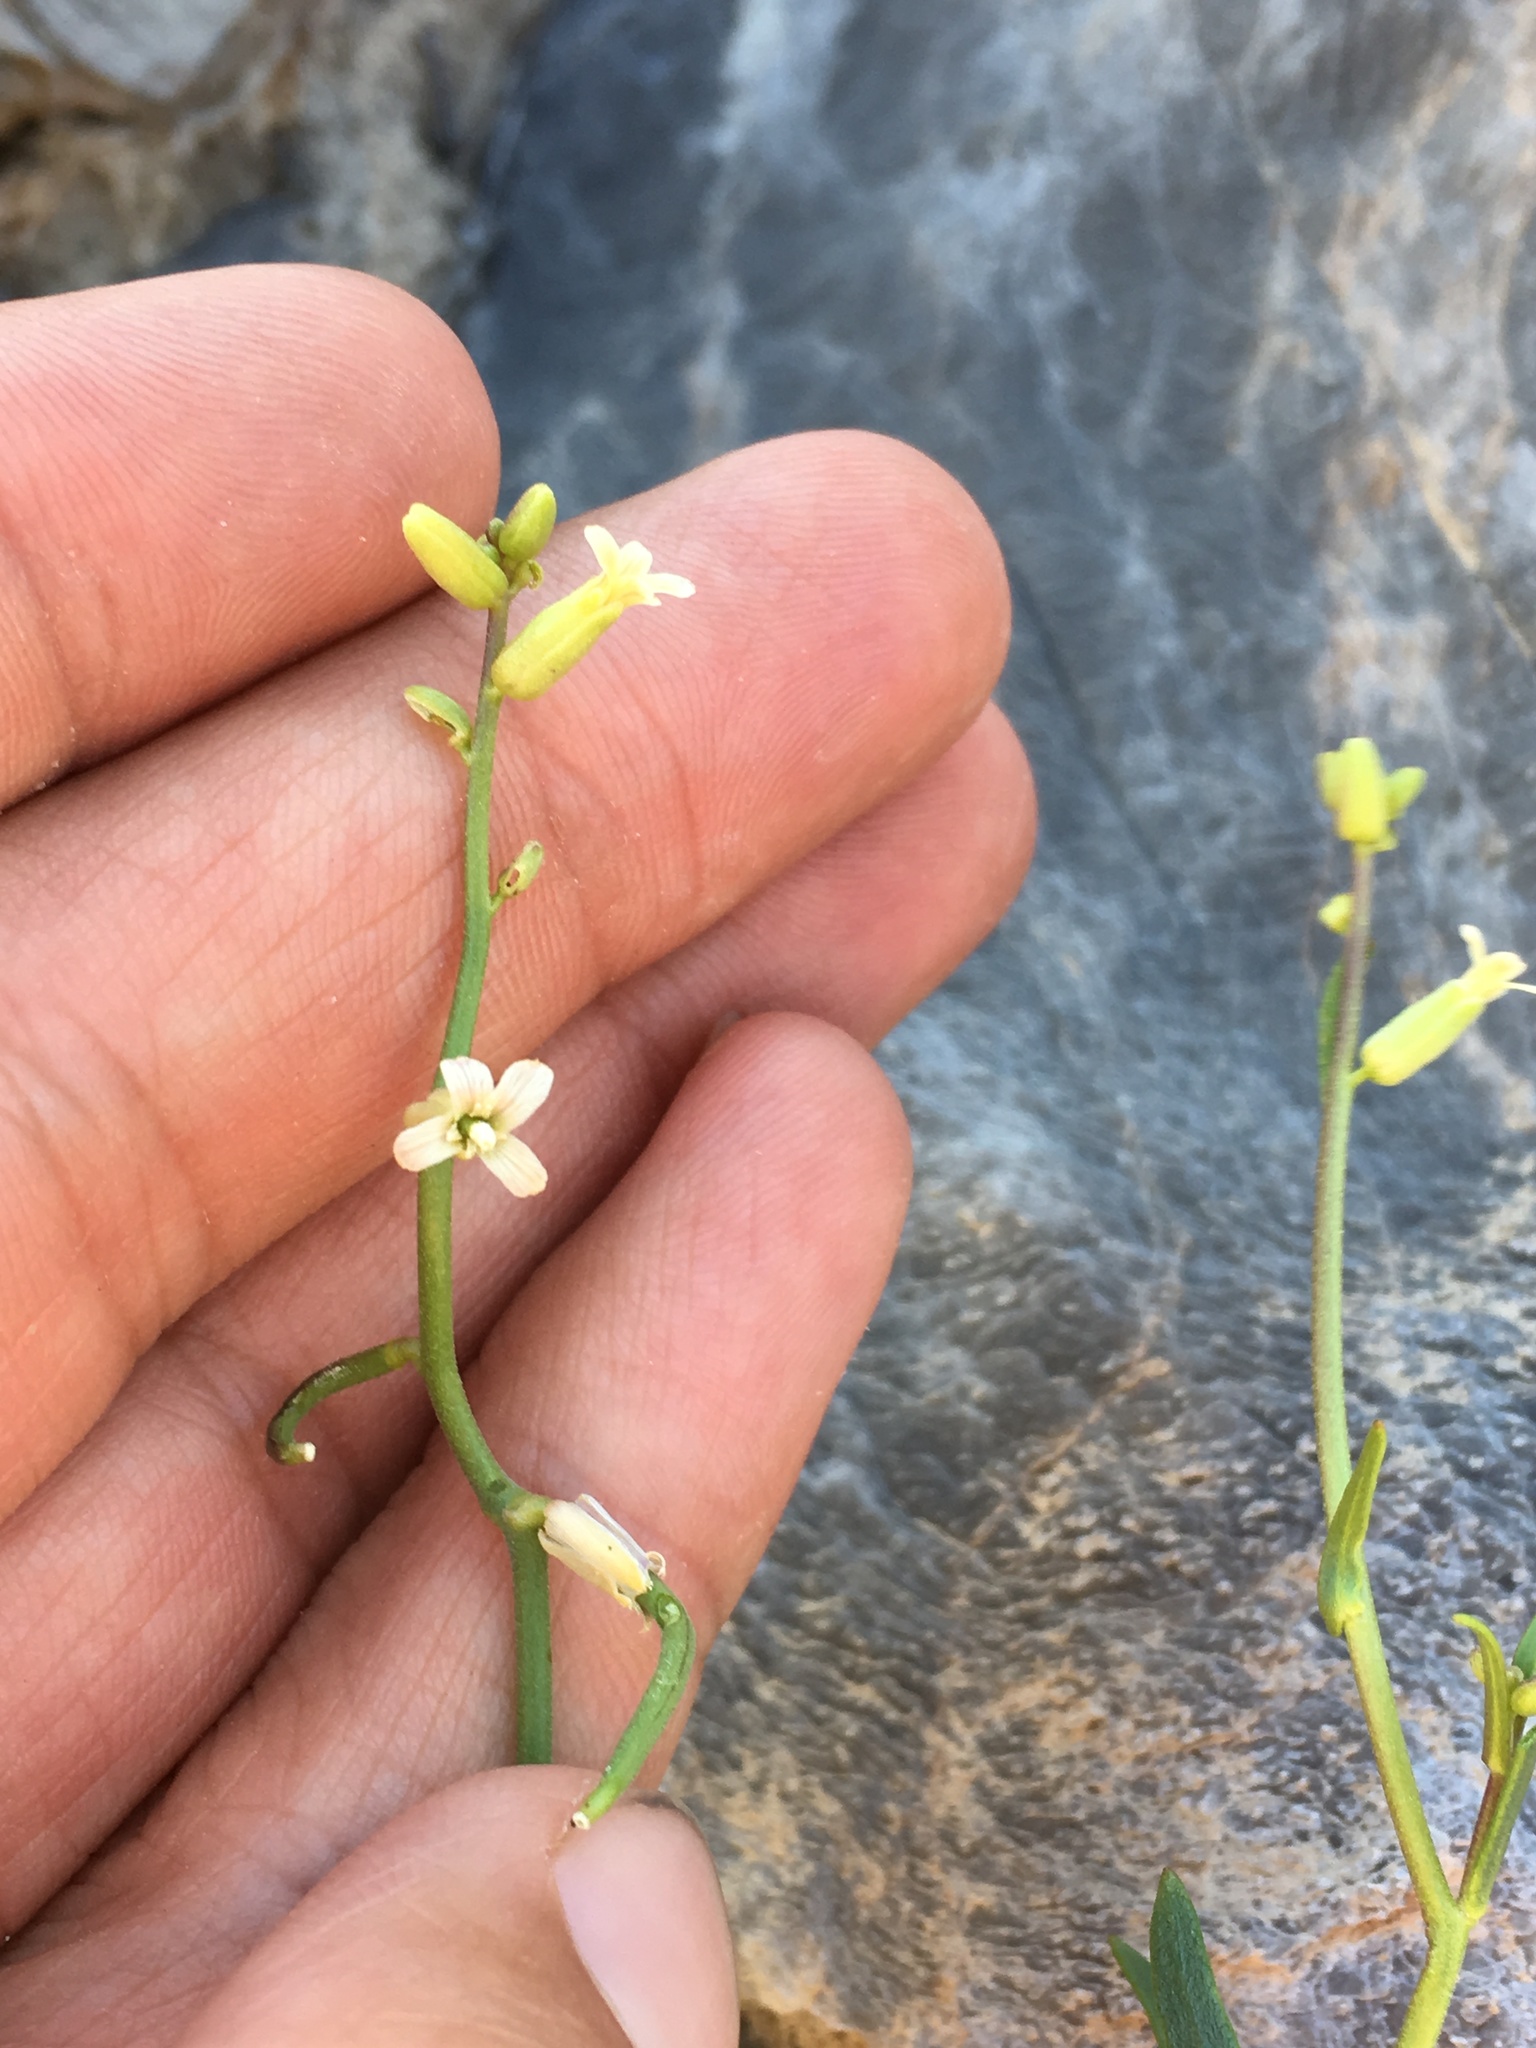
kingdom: Plantae
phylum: Tracheophyta
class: Magnoliopsida
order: Brassicales
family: Brassicaceae
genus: Streptanthus
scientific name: Streptanthus cooperi
